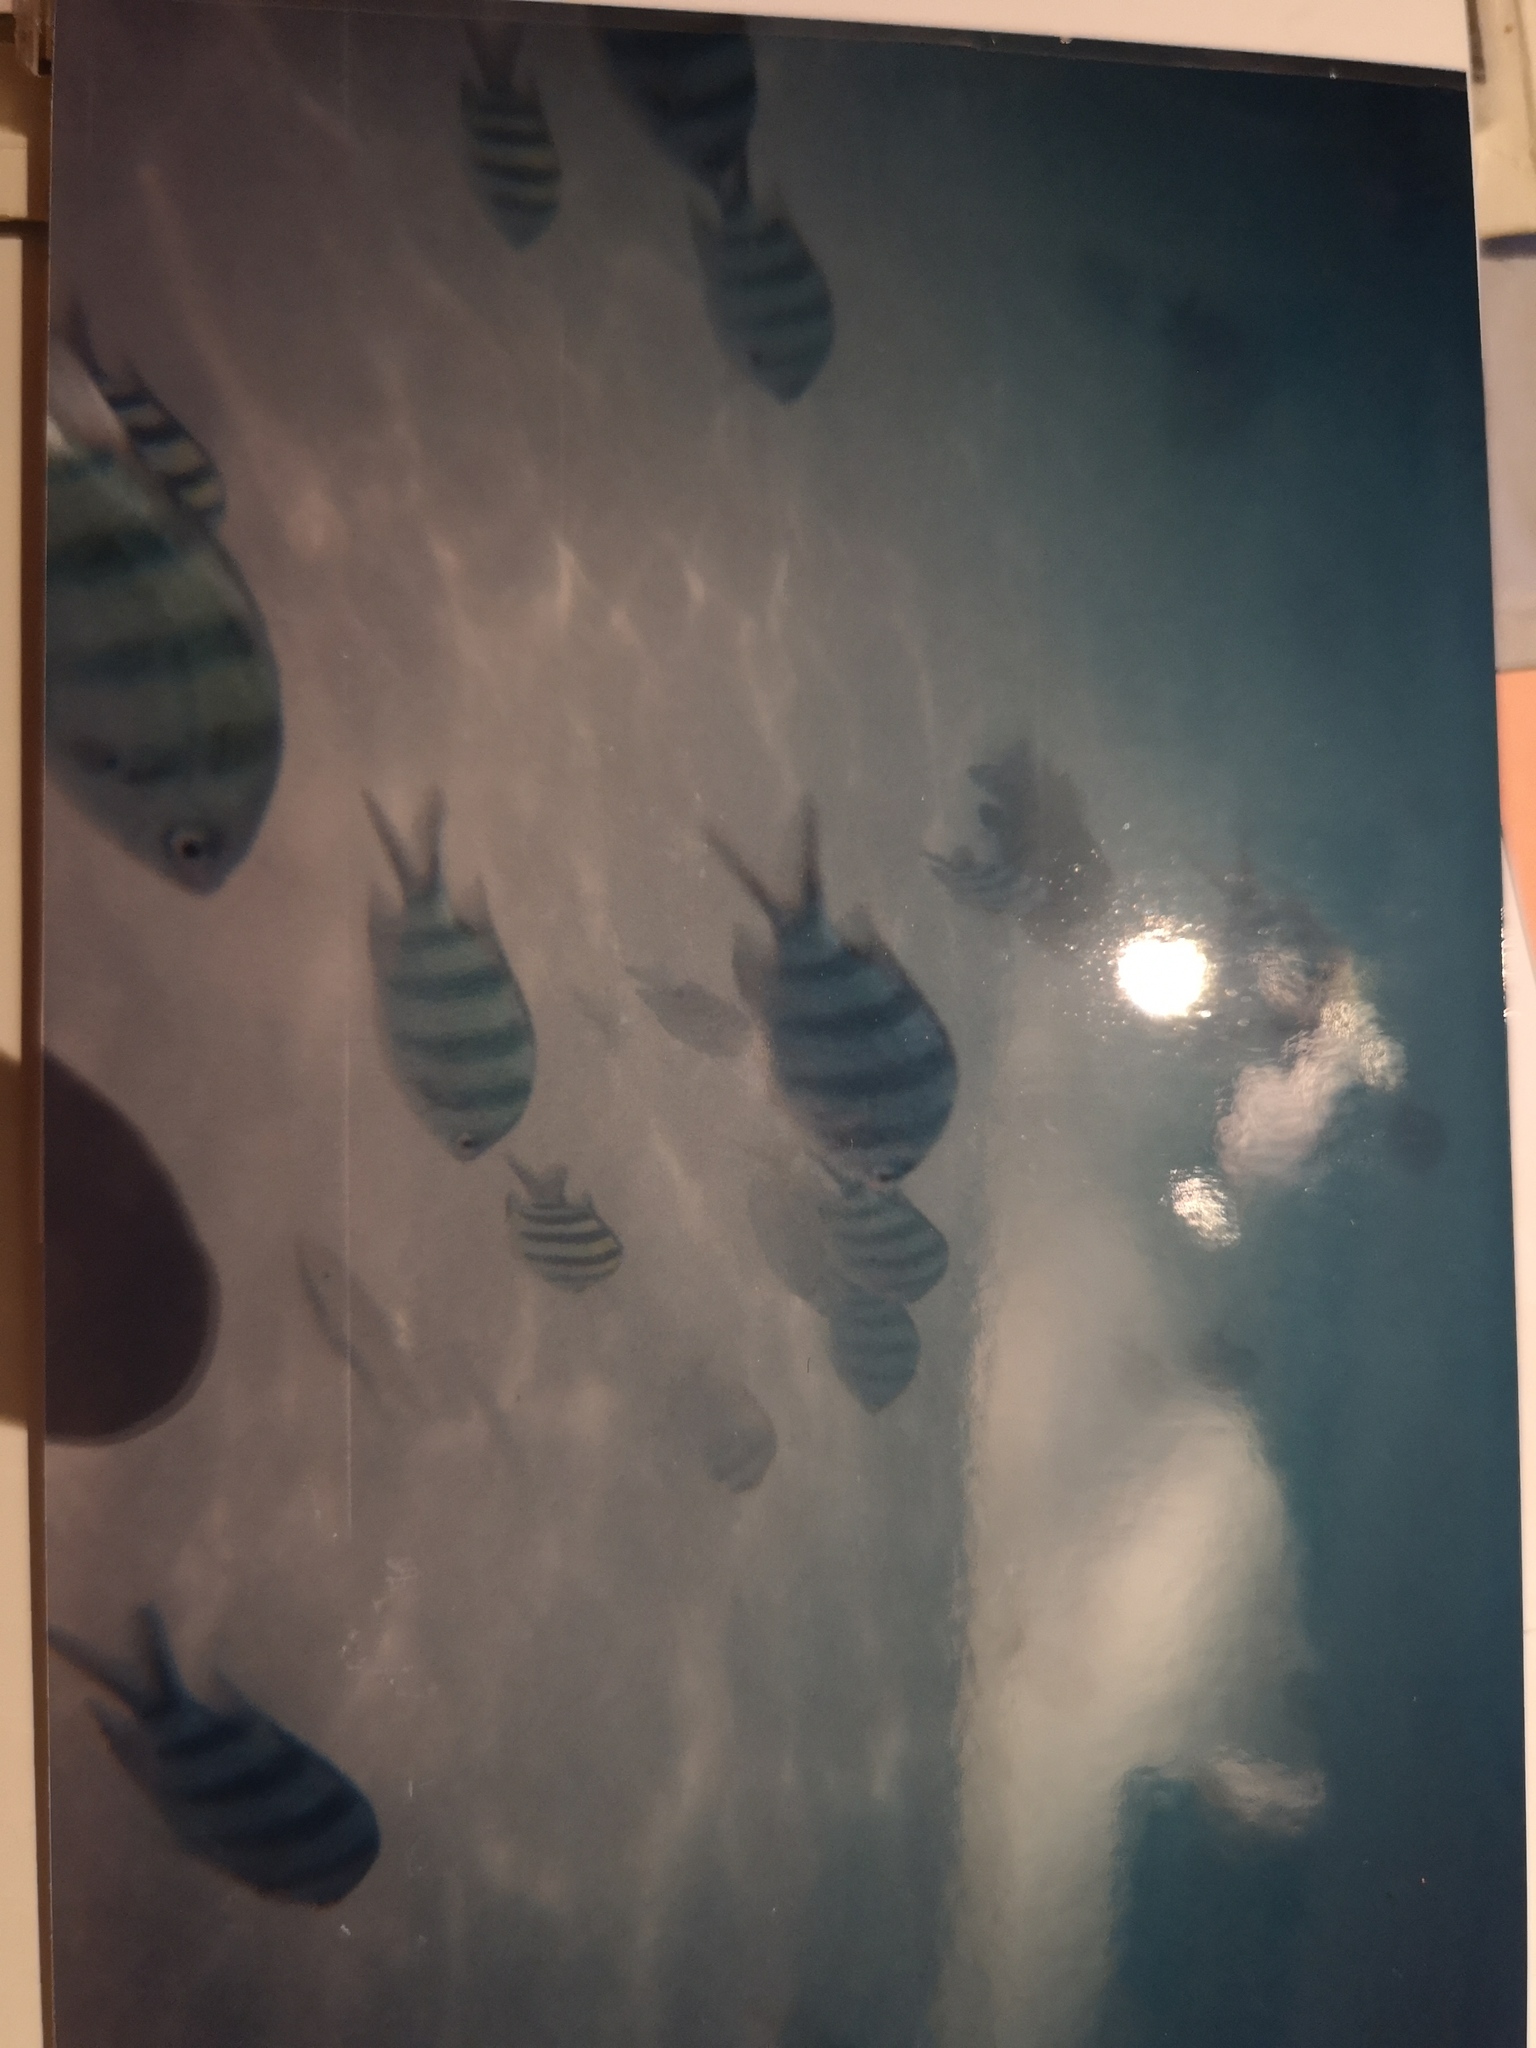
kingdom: Animalia
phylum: Chordata
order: Perciformes
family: Pomacentridae
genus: Abudefduf
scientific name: Abudefduf sexfasciatus
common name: Scissortail sergeant
